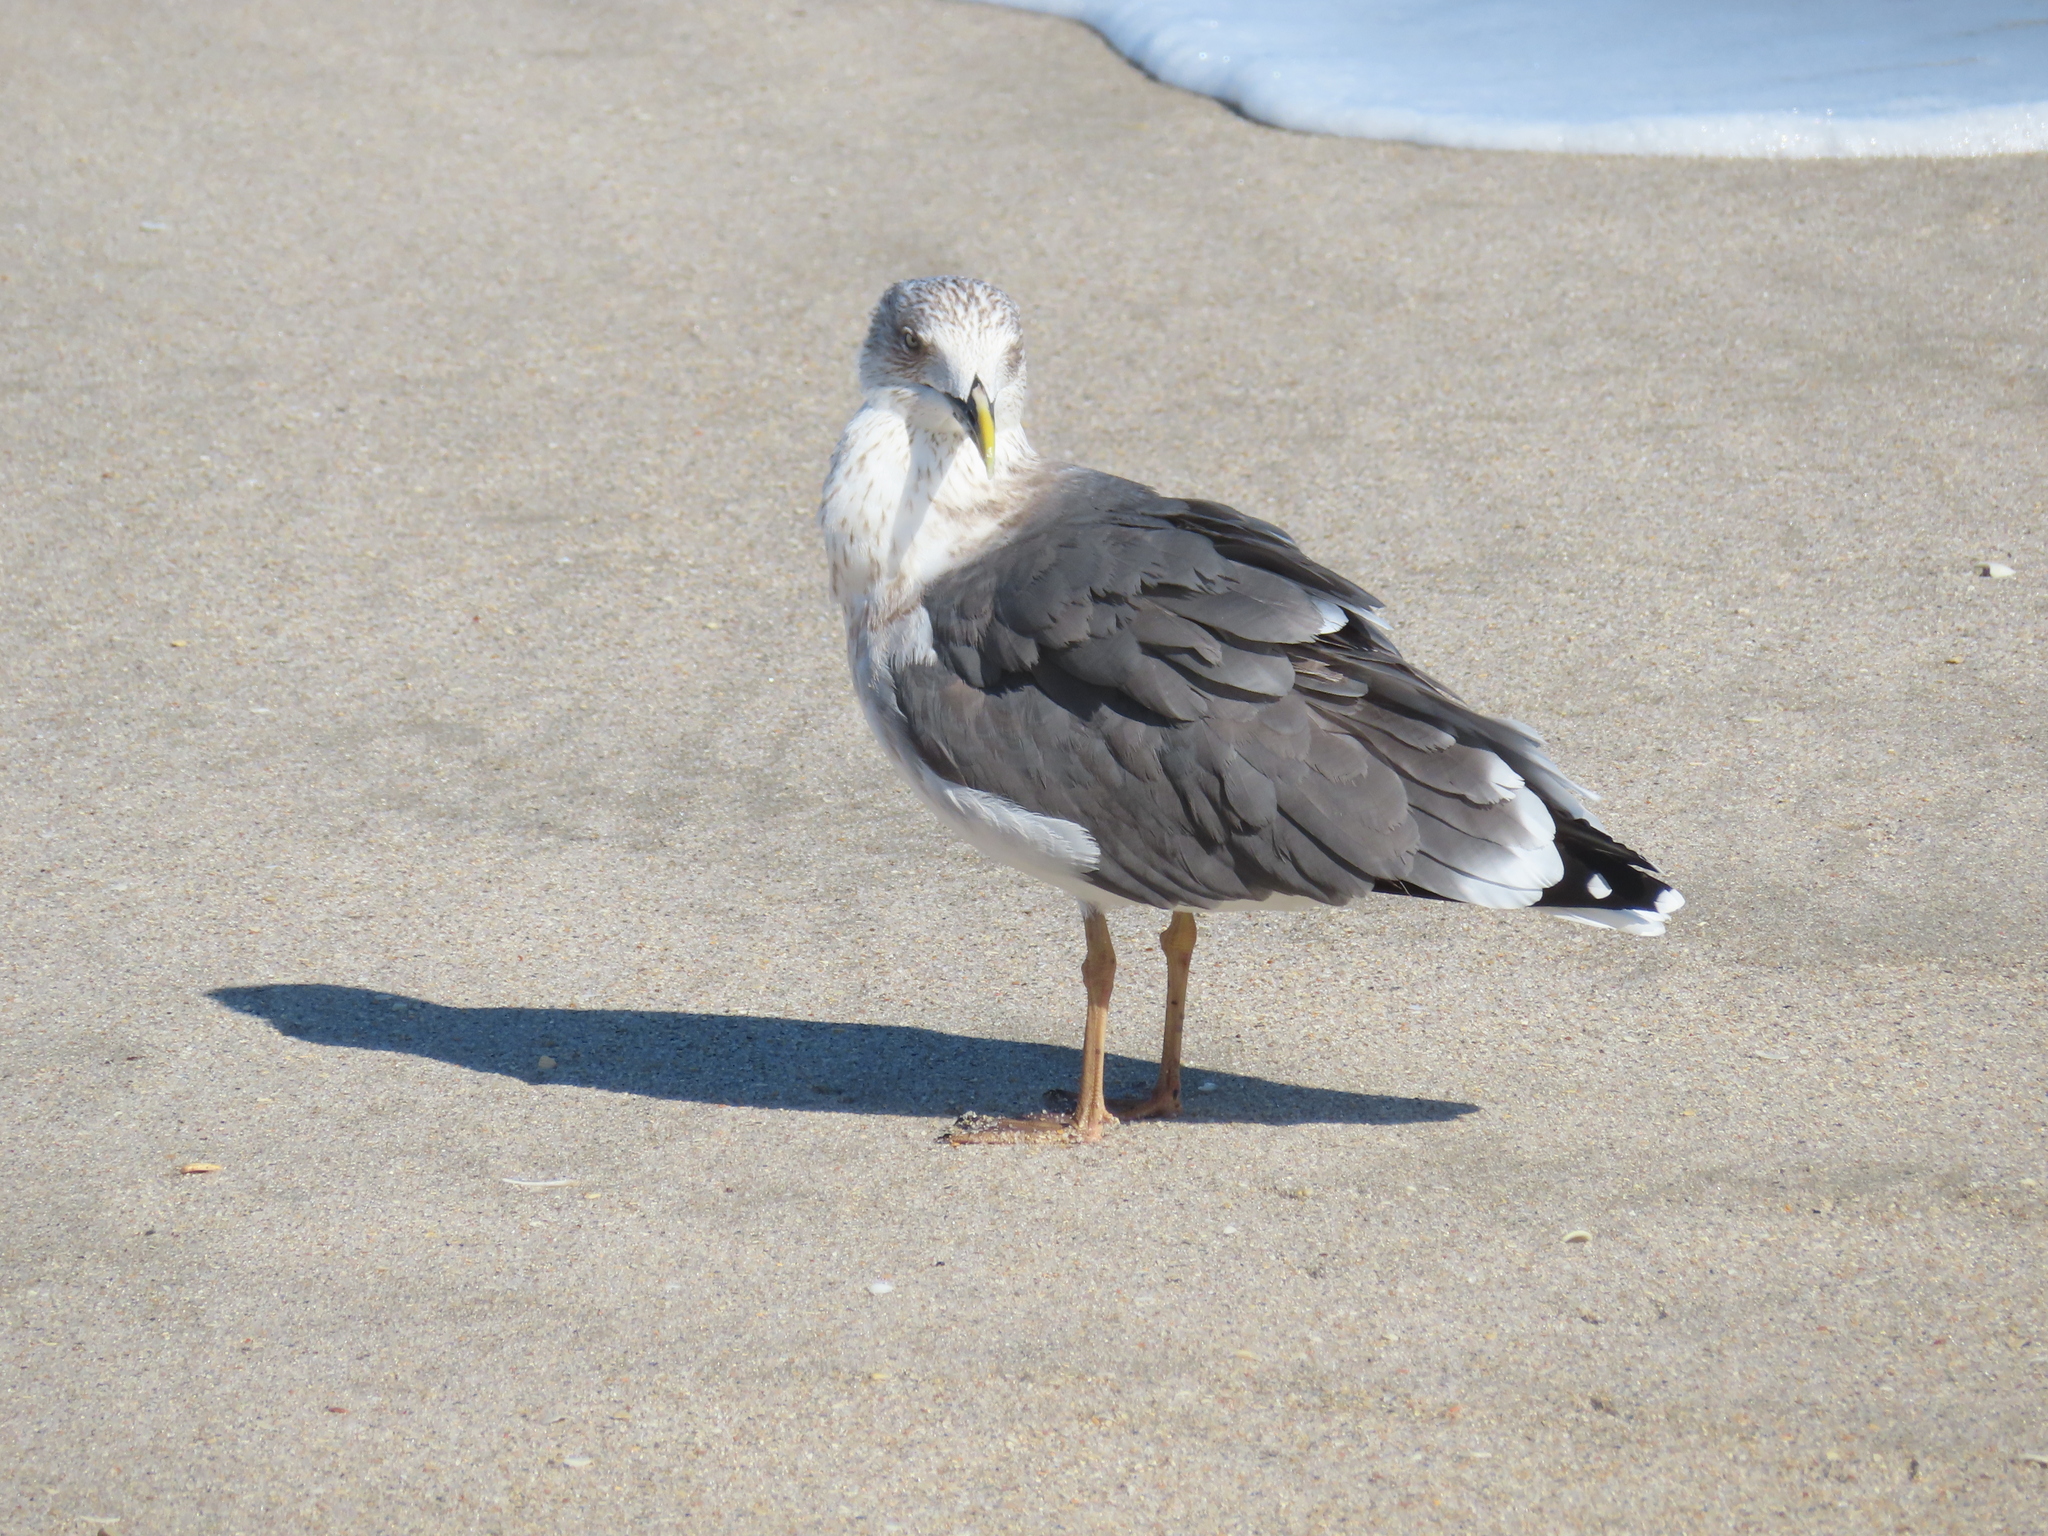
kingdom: Animalia
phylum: Chordata
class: Aves
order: Charadriiformes
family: Laridae
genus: Larus
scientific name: Larus fuscus
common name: Lesser black-backed gull
